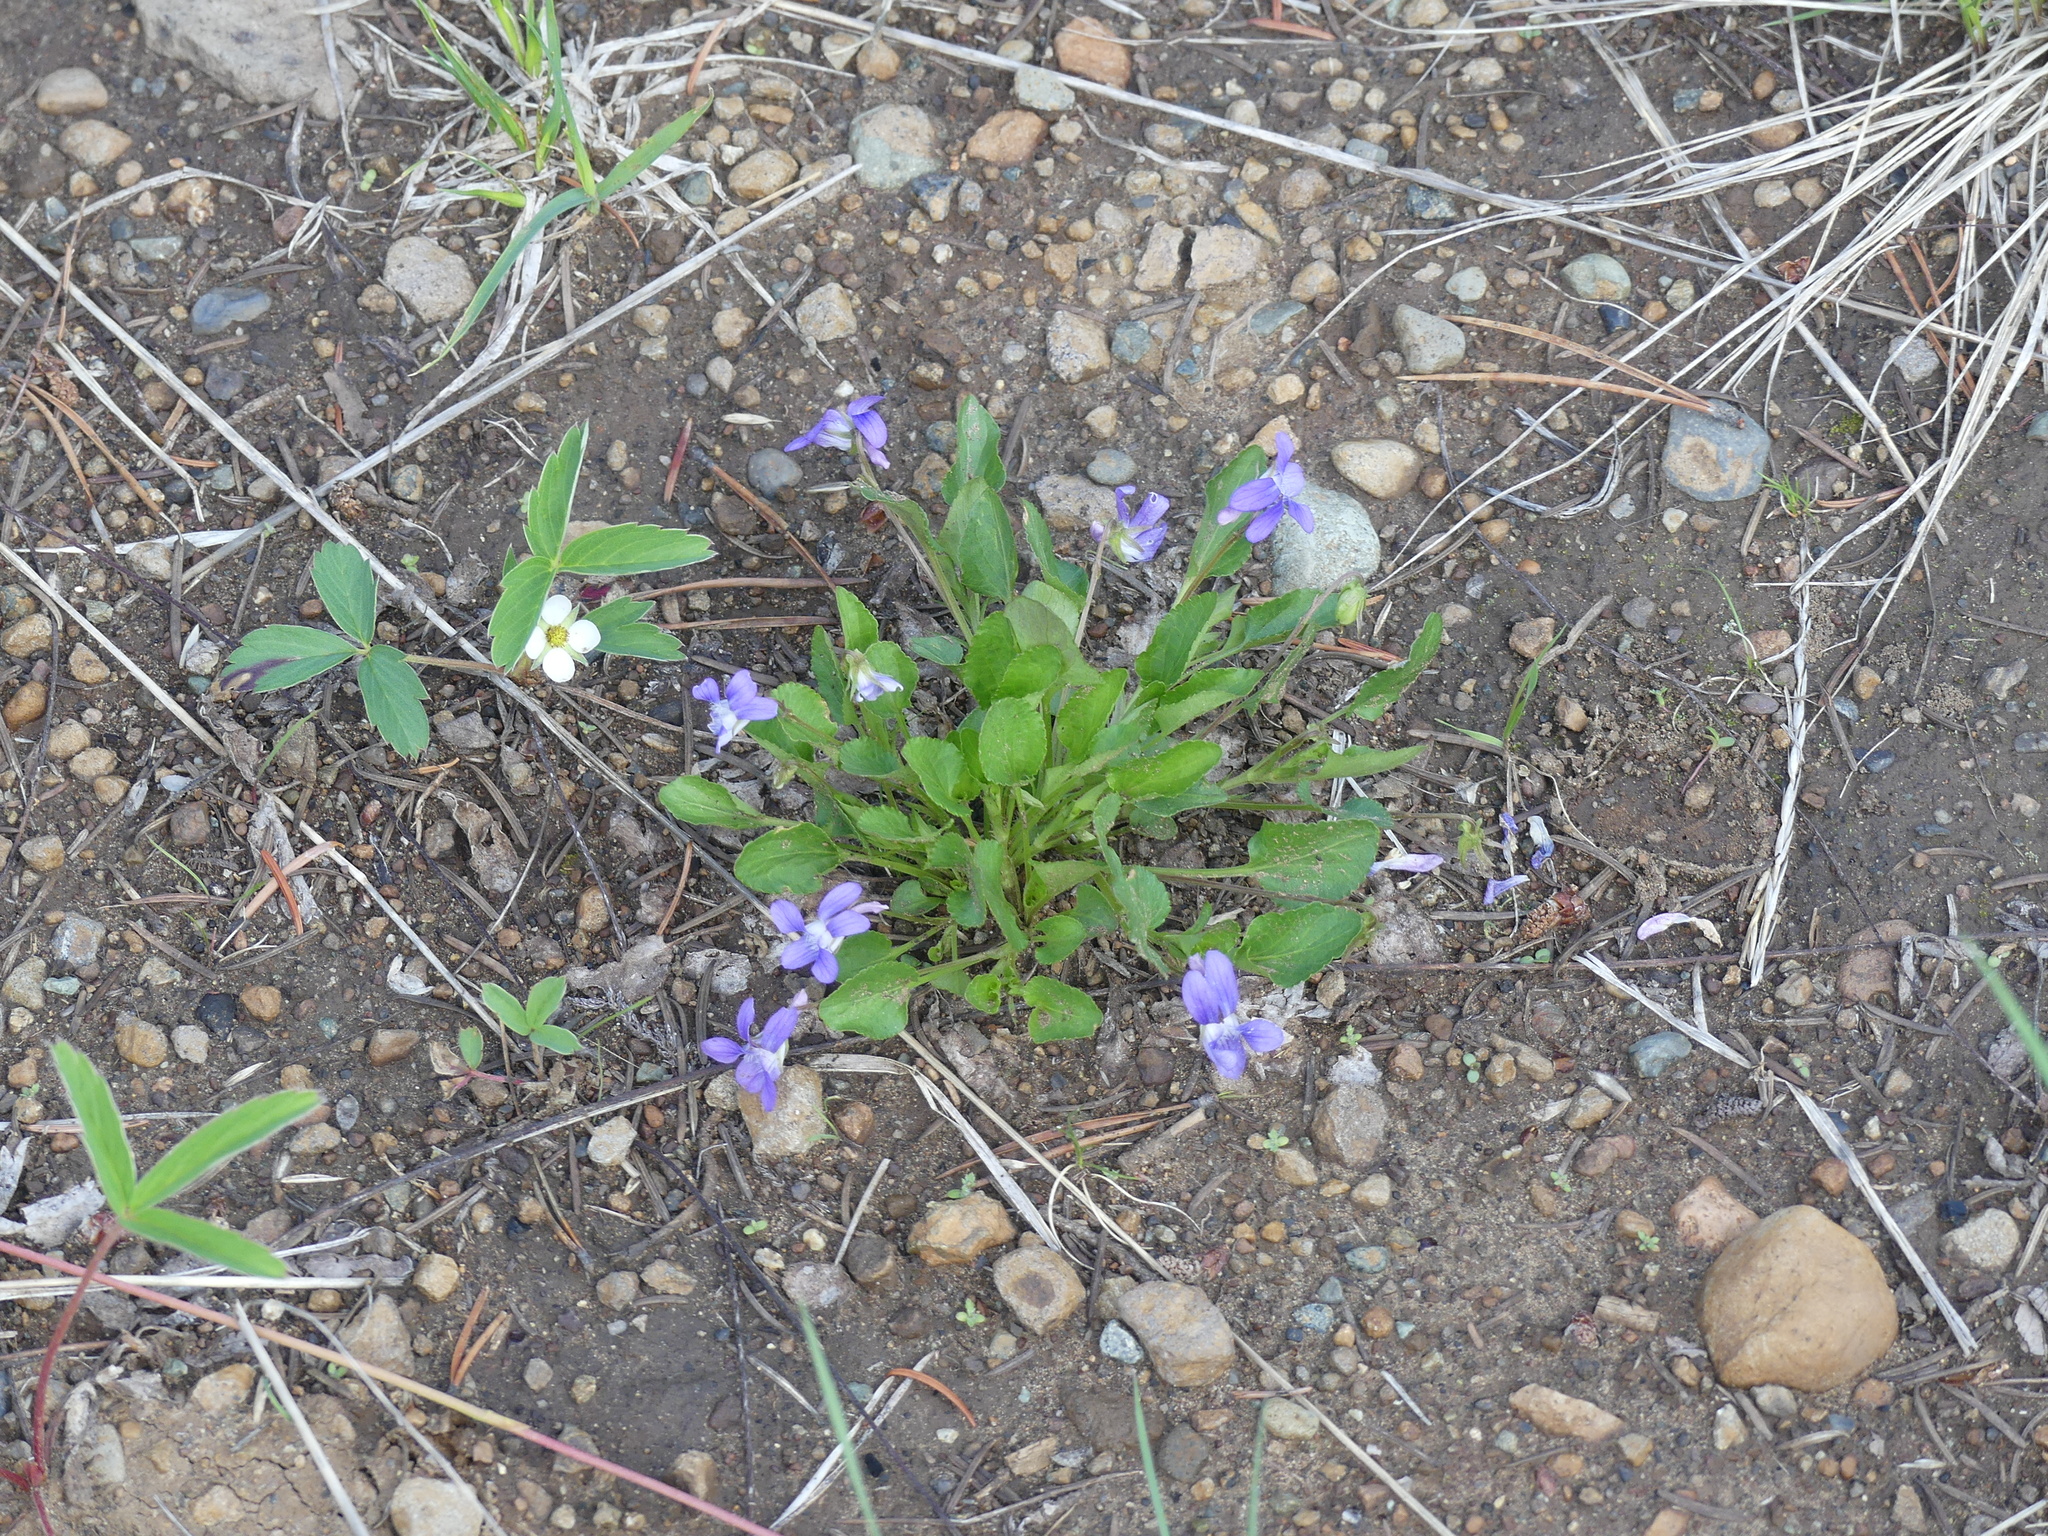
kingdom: Plantae
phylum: Tracheophyta
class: Magnoliopsida
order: Malpighiales
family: Violaceae
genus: Viola
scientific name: Viola adunca
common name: Sand violet
